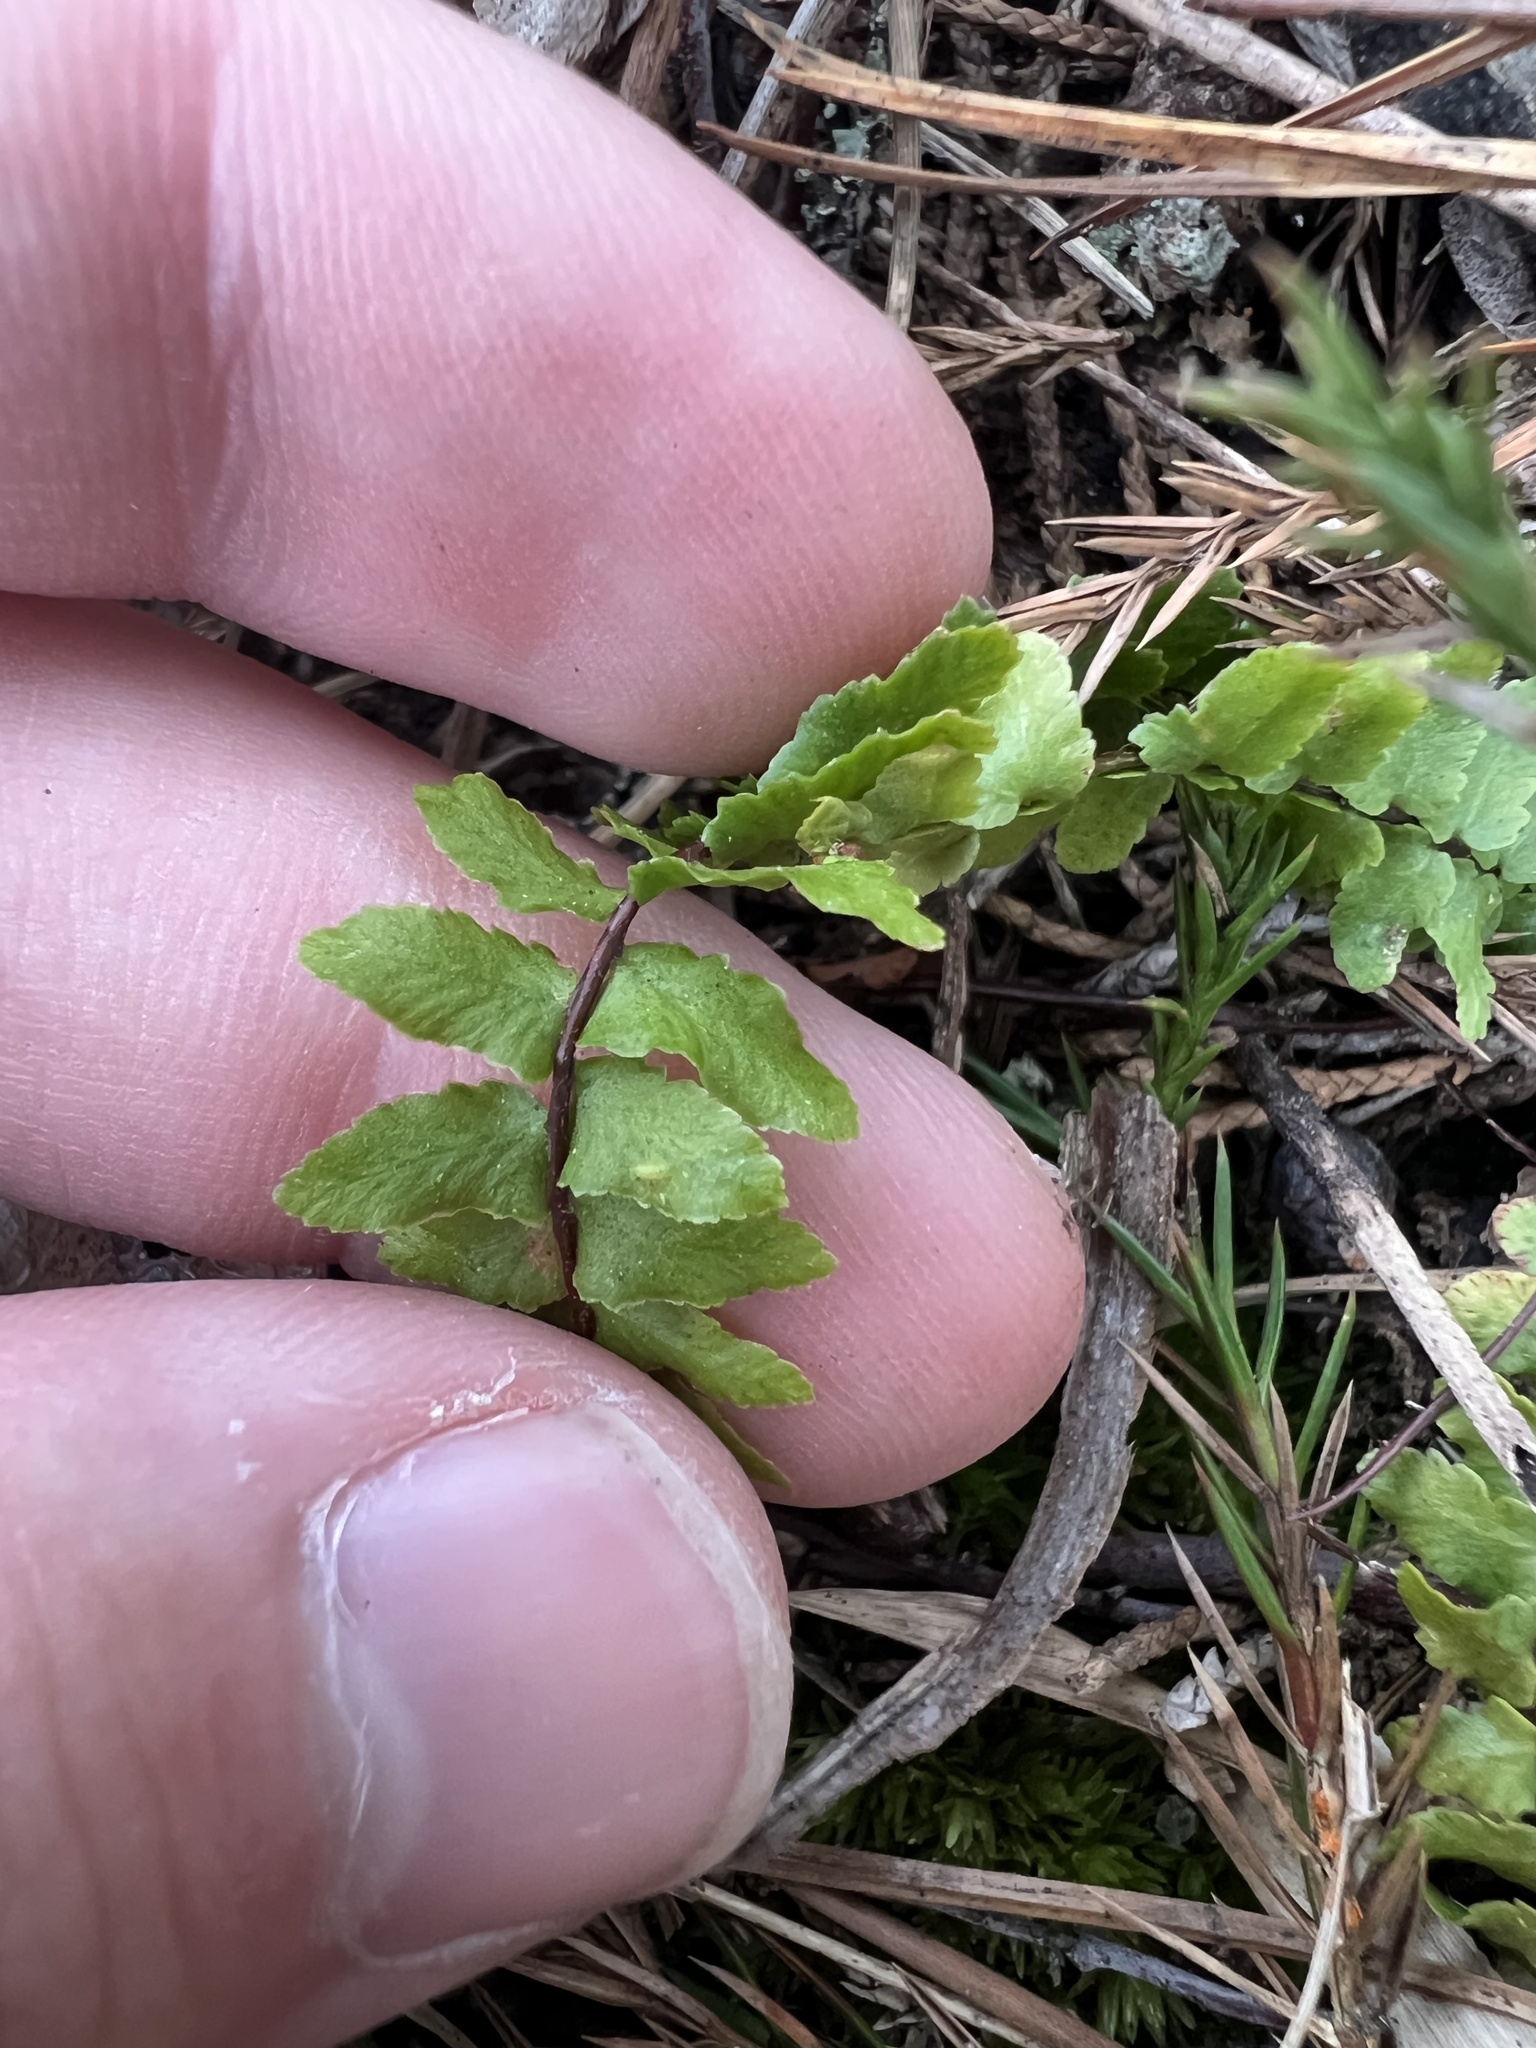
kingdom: Plantae
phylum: Tracheophyta
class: Polypodiopsida
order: Polypodiales
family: Aspleniaceae
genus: Asplenium
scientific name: Asplenium platyneuron
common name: Ebony spleenwort
